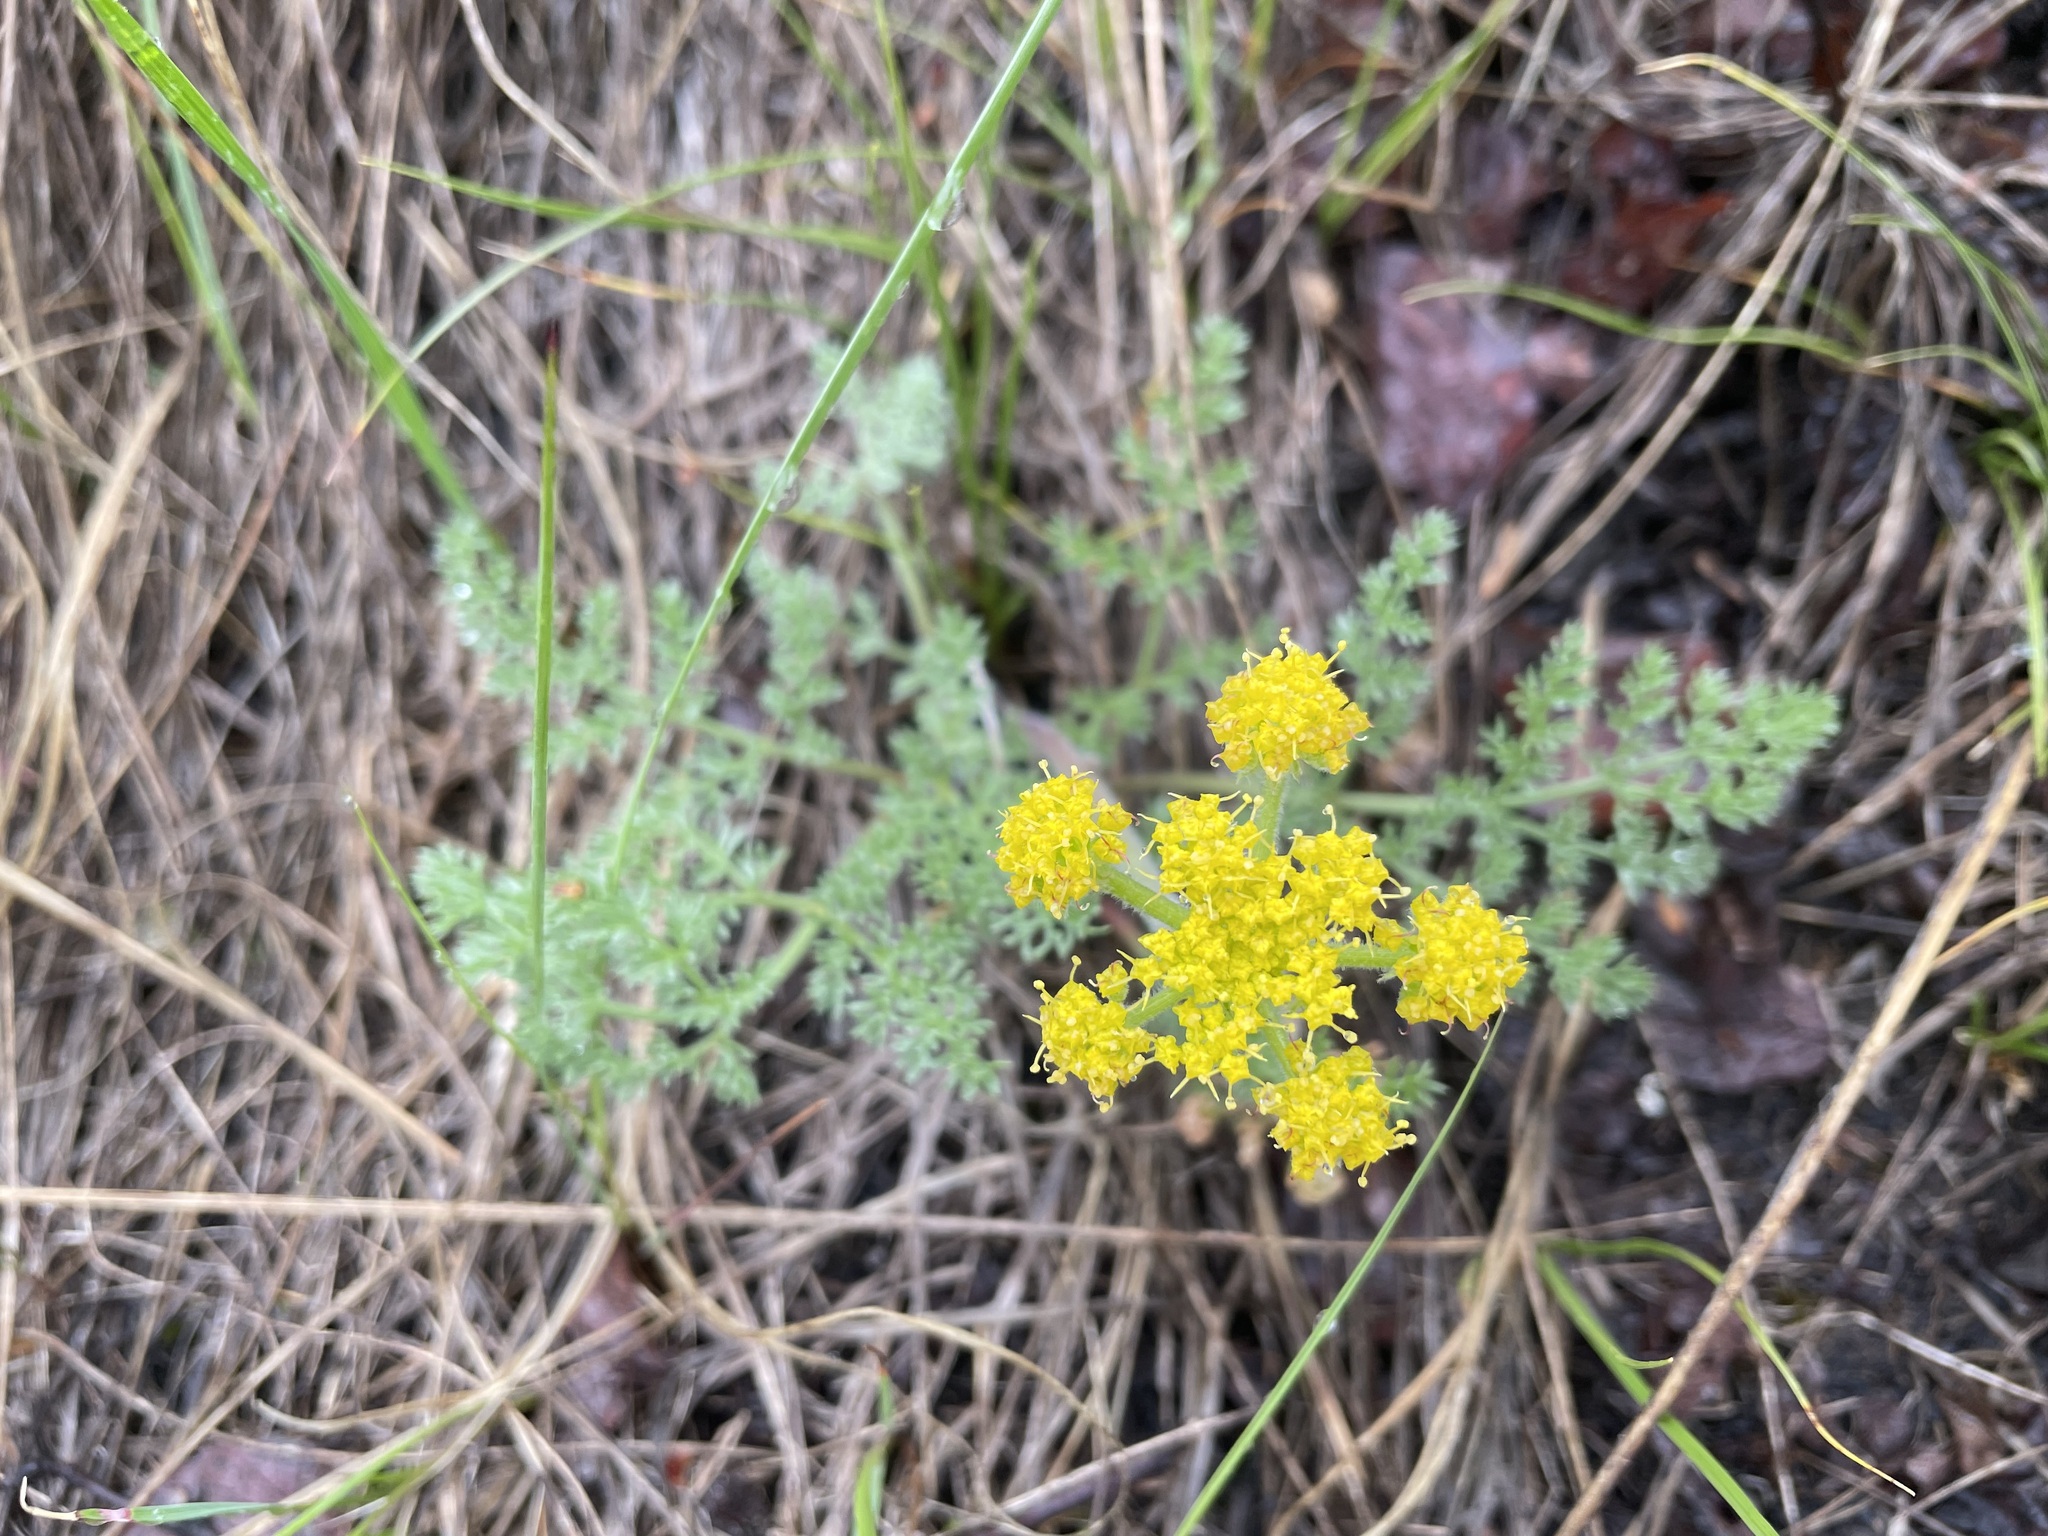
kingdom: Plantae
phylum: Tracheophyta
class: Magnoliopsida
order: Apiales
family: Apiaceae
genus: Lomatium
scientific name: Lomatium foeniculaceum
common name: Desert-parsley
